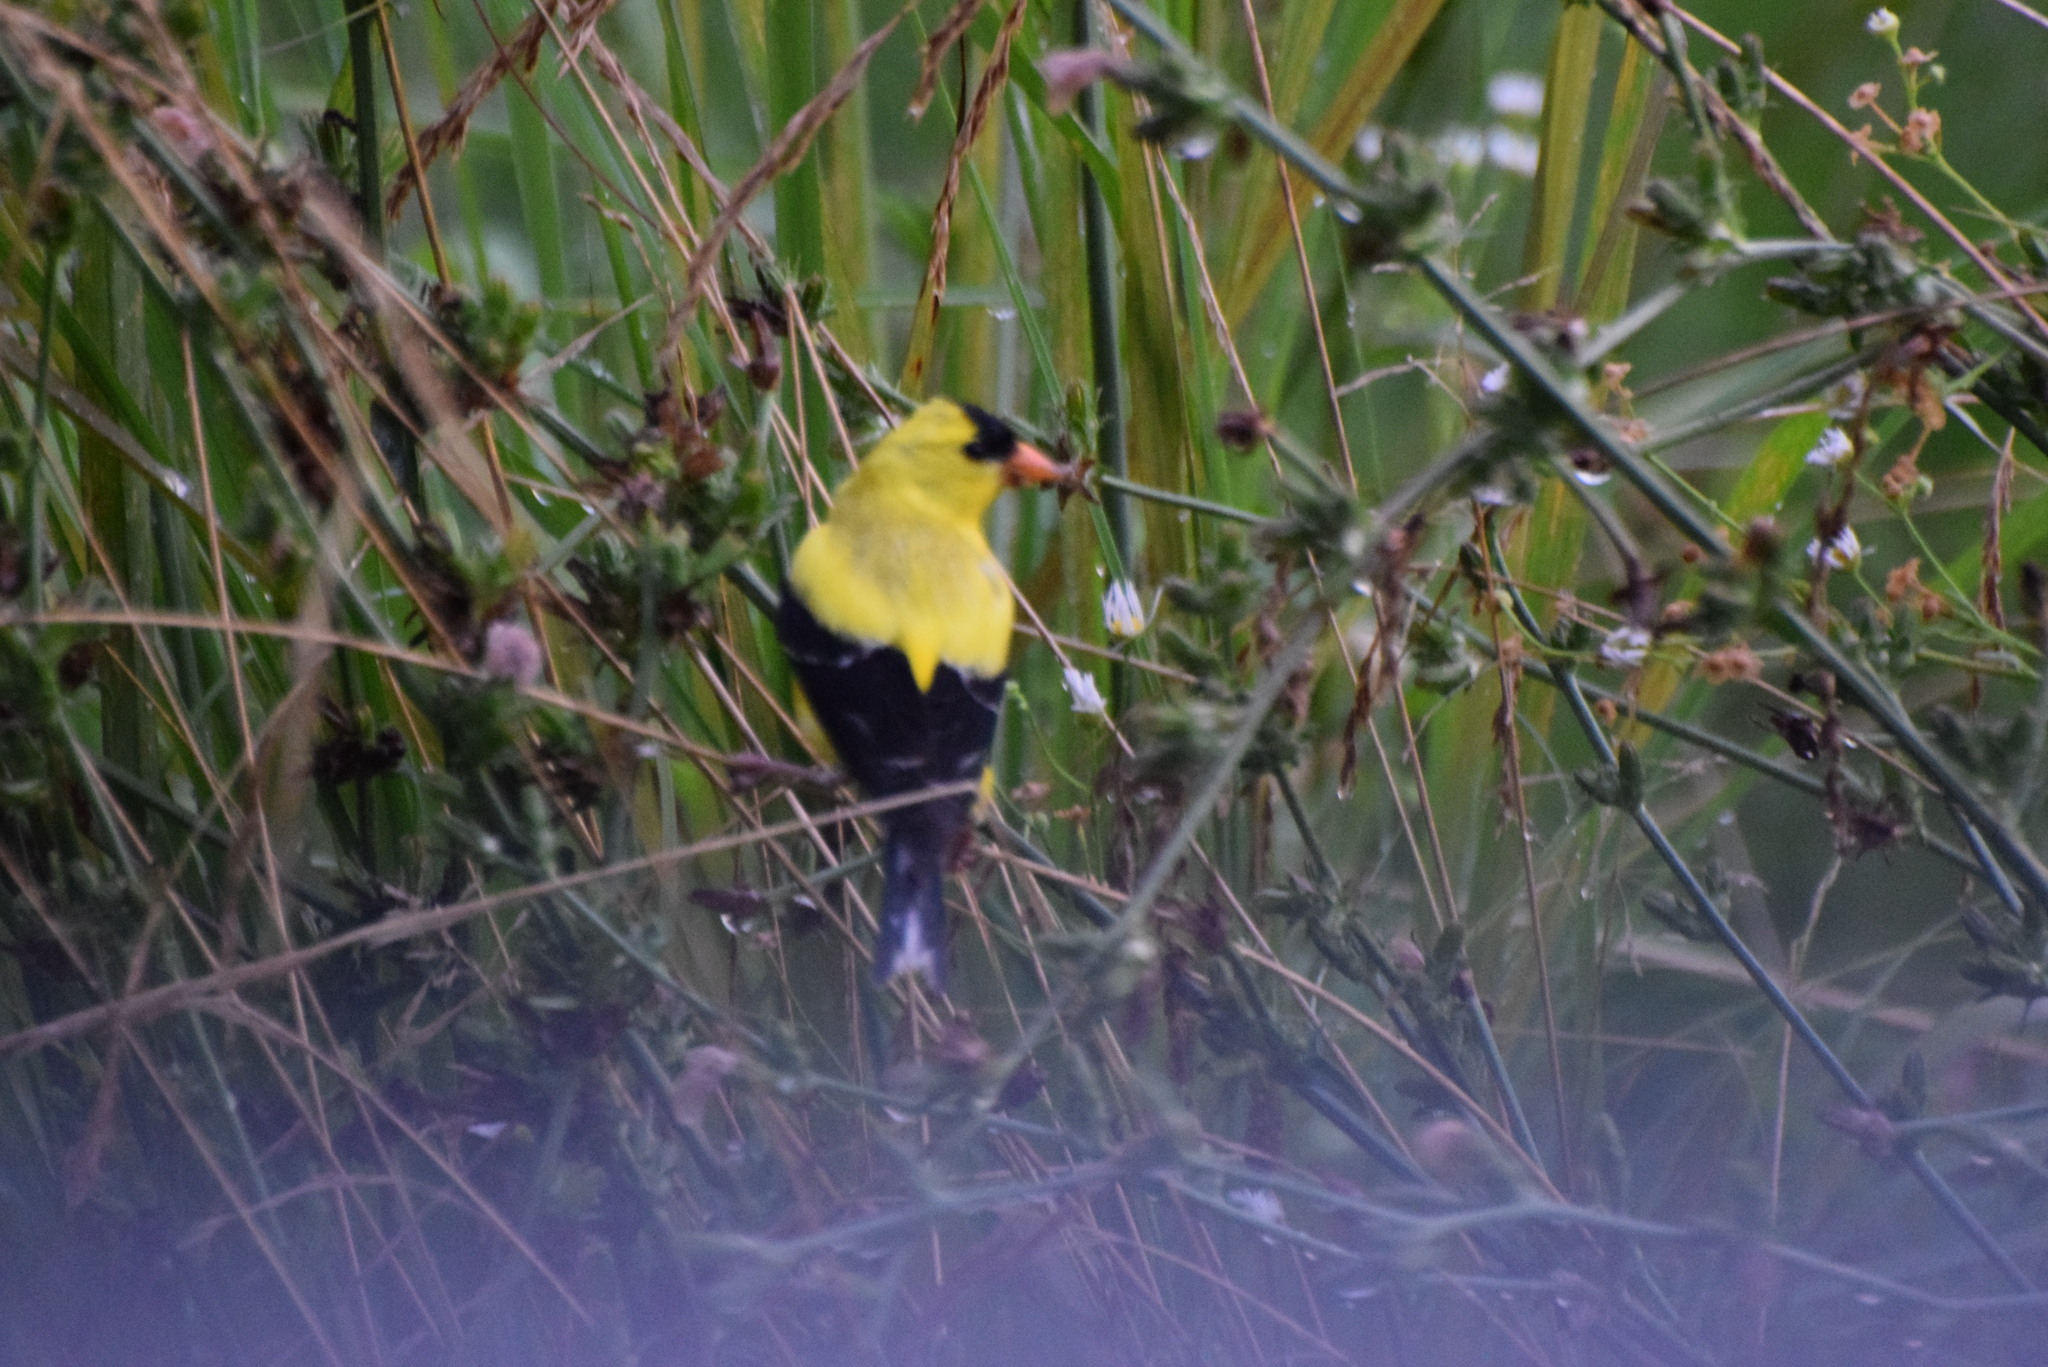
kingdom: Animalia
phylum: Chordata
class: Aves
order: Passeriformes
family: Fringillidae
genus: Spinus
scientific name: Spinus tristis
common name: American goldfinch
